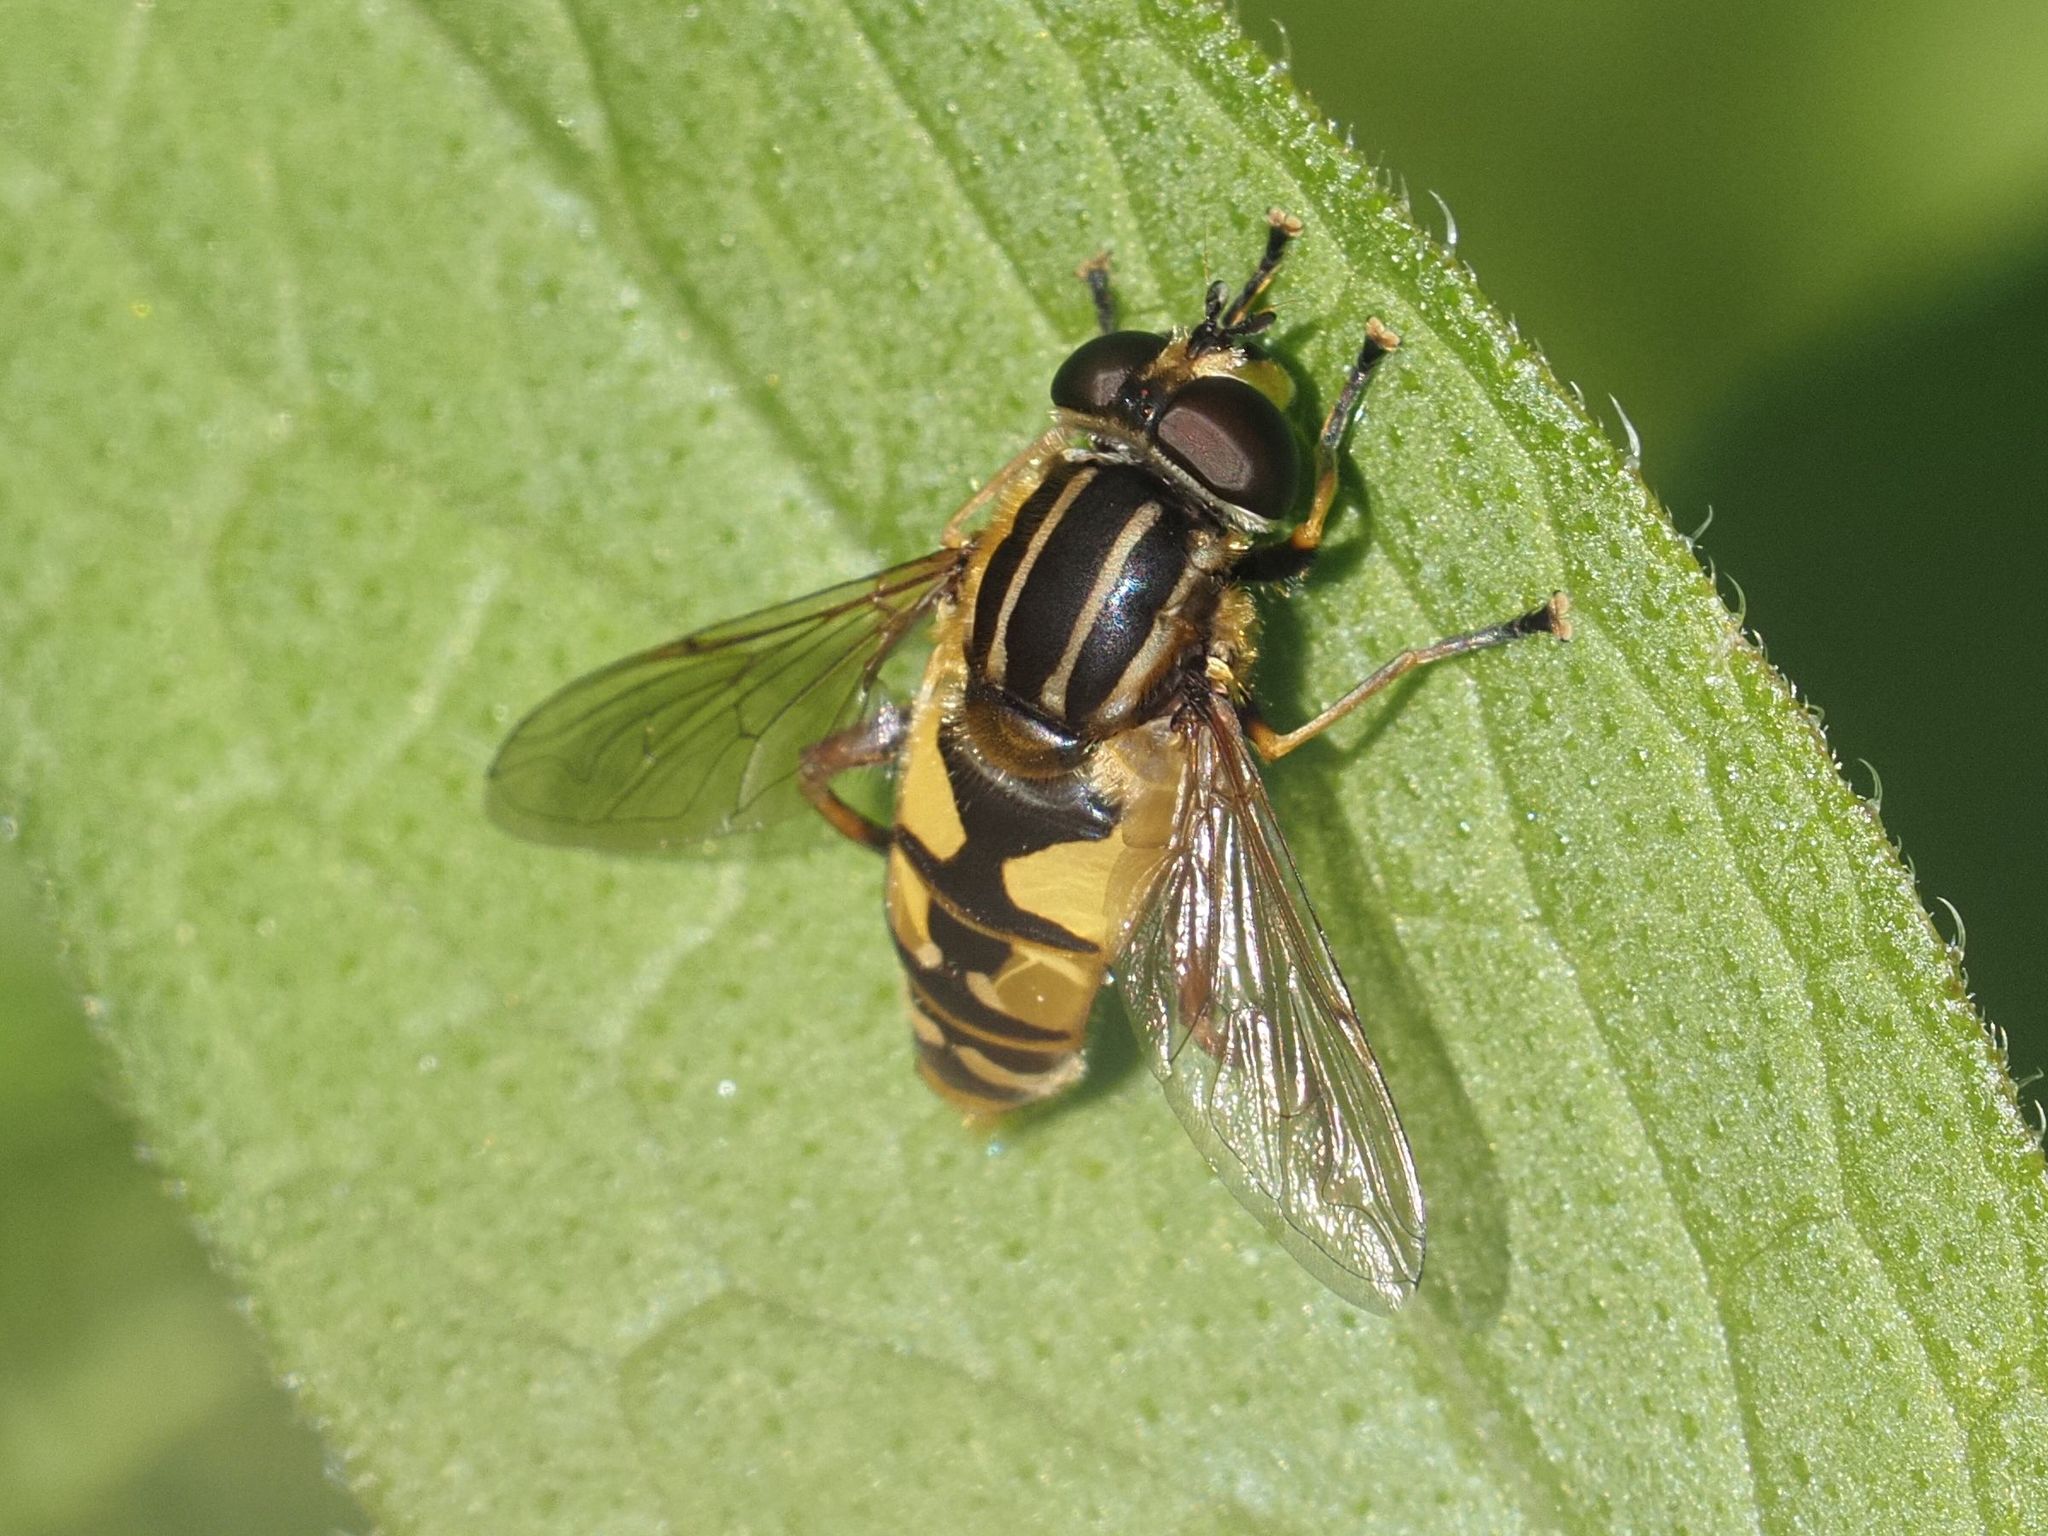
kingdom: Animalia
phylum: Arthropoda
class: Insecta
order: Diptera
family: Syrphidae
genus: Helophilus
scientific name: Helophilus pendulus
